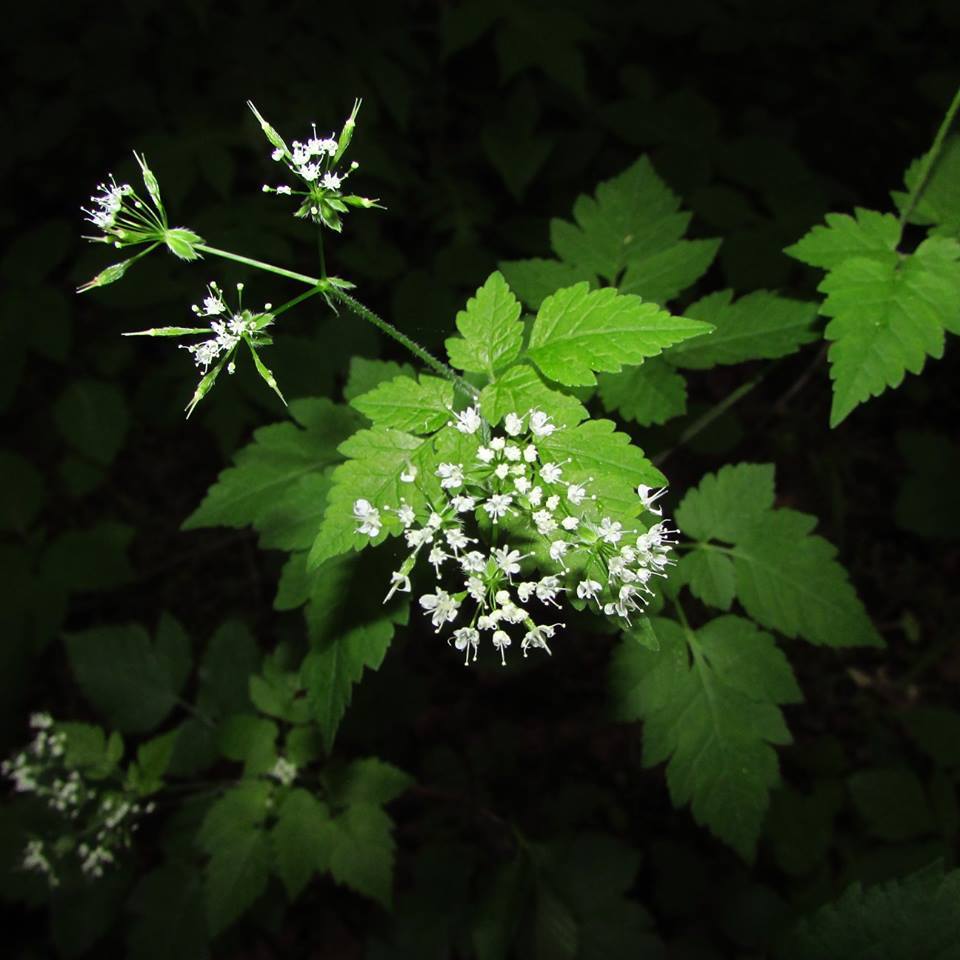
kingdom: Plantae
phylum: Tracheophyta
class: Magnoliopsida
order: Apiales
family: Apiaceae
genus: Osmorhiza
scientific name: Osmorhiza longistylis
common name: Smooth sweet cicely
